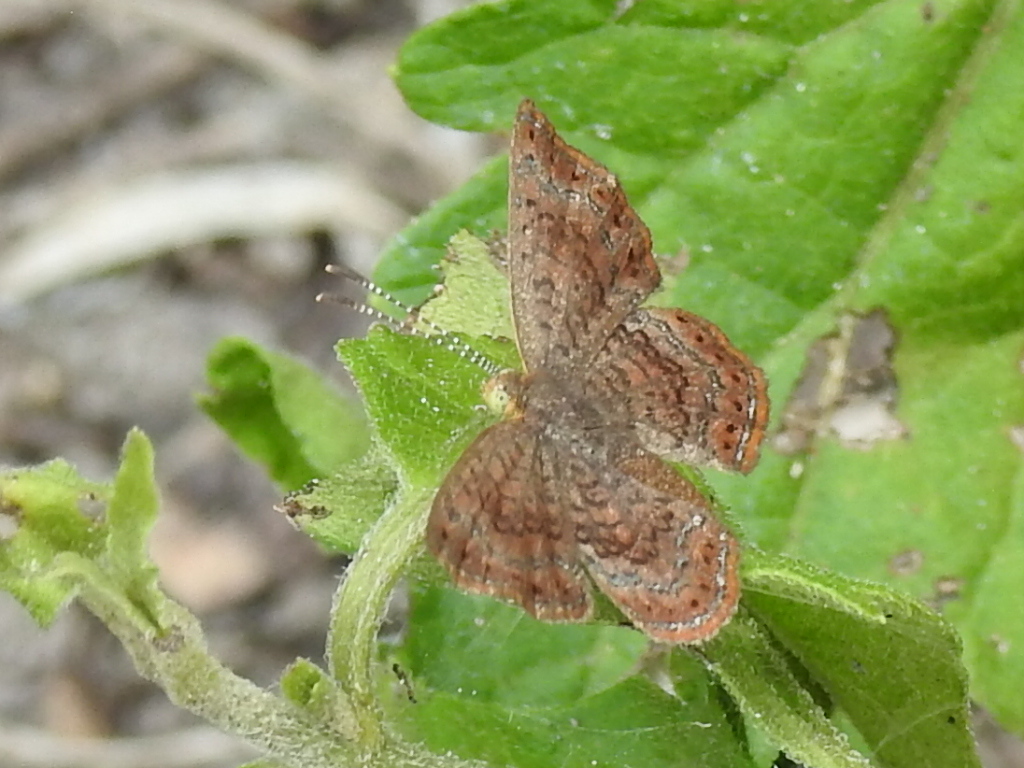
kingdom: Animalia
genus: Calephelis
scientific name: Calephelis nemesis
